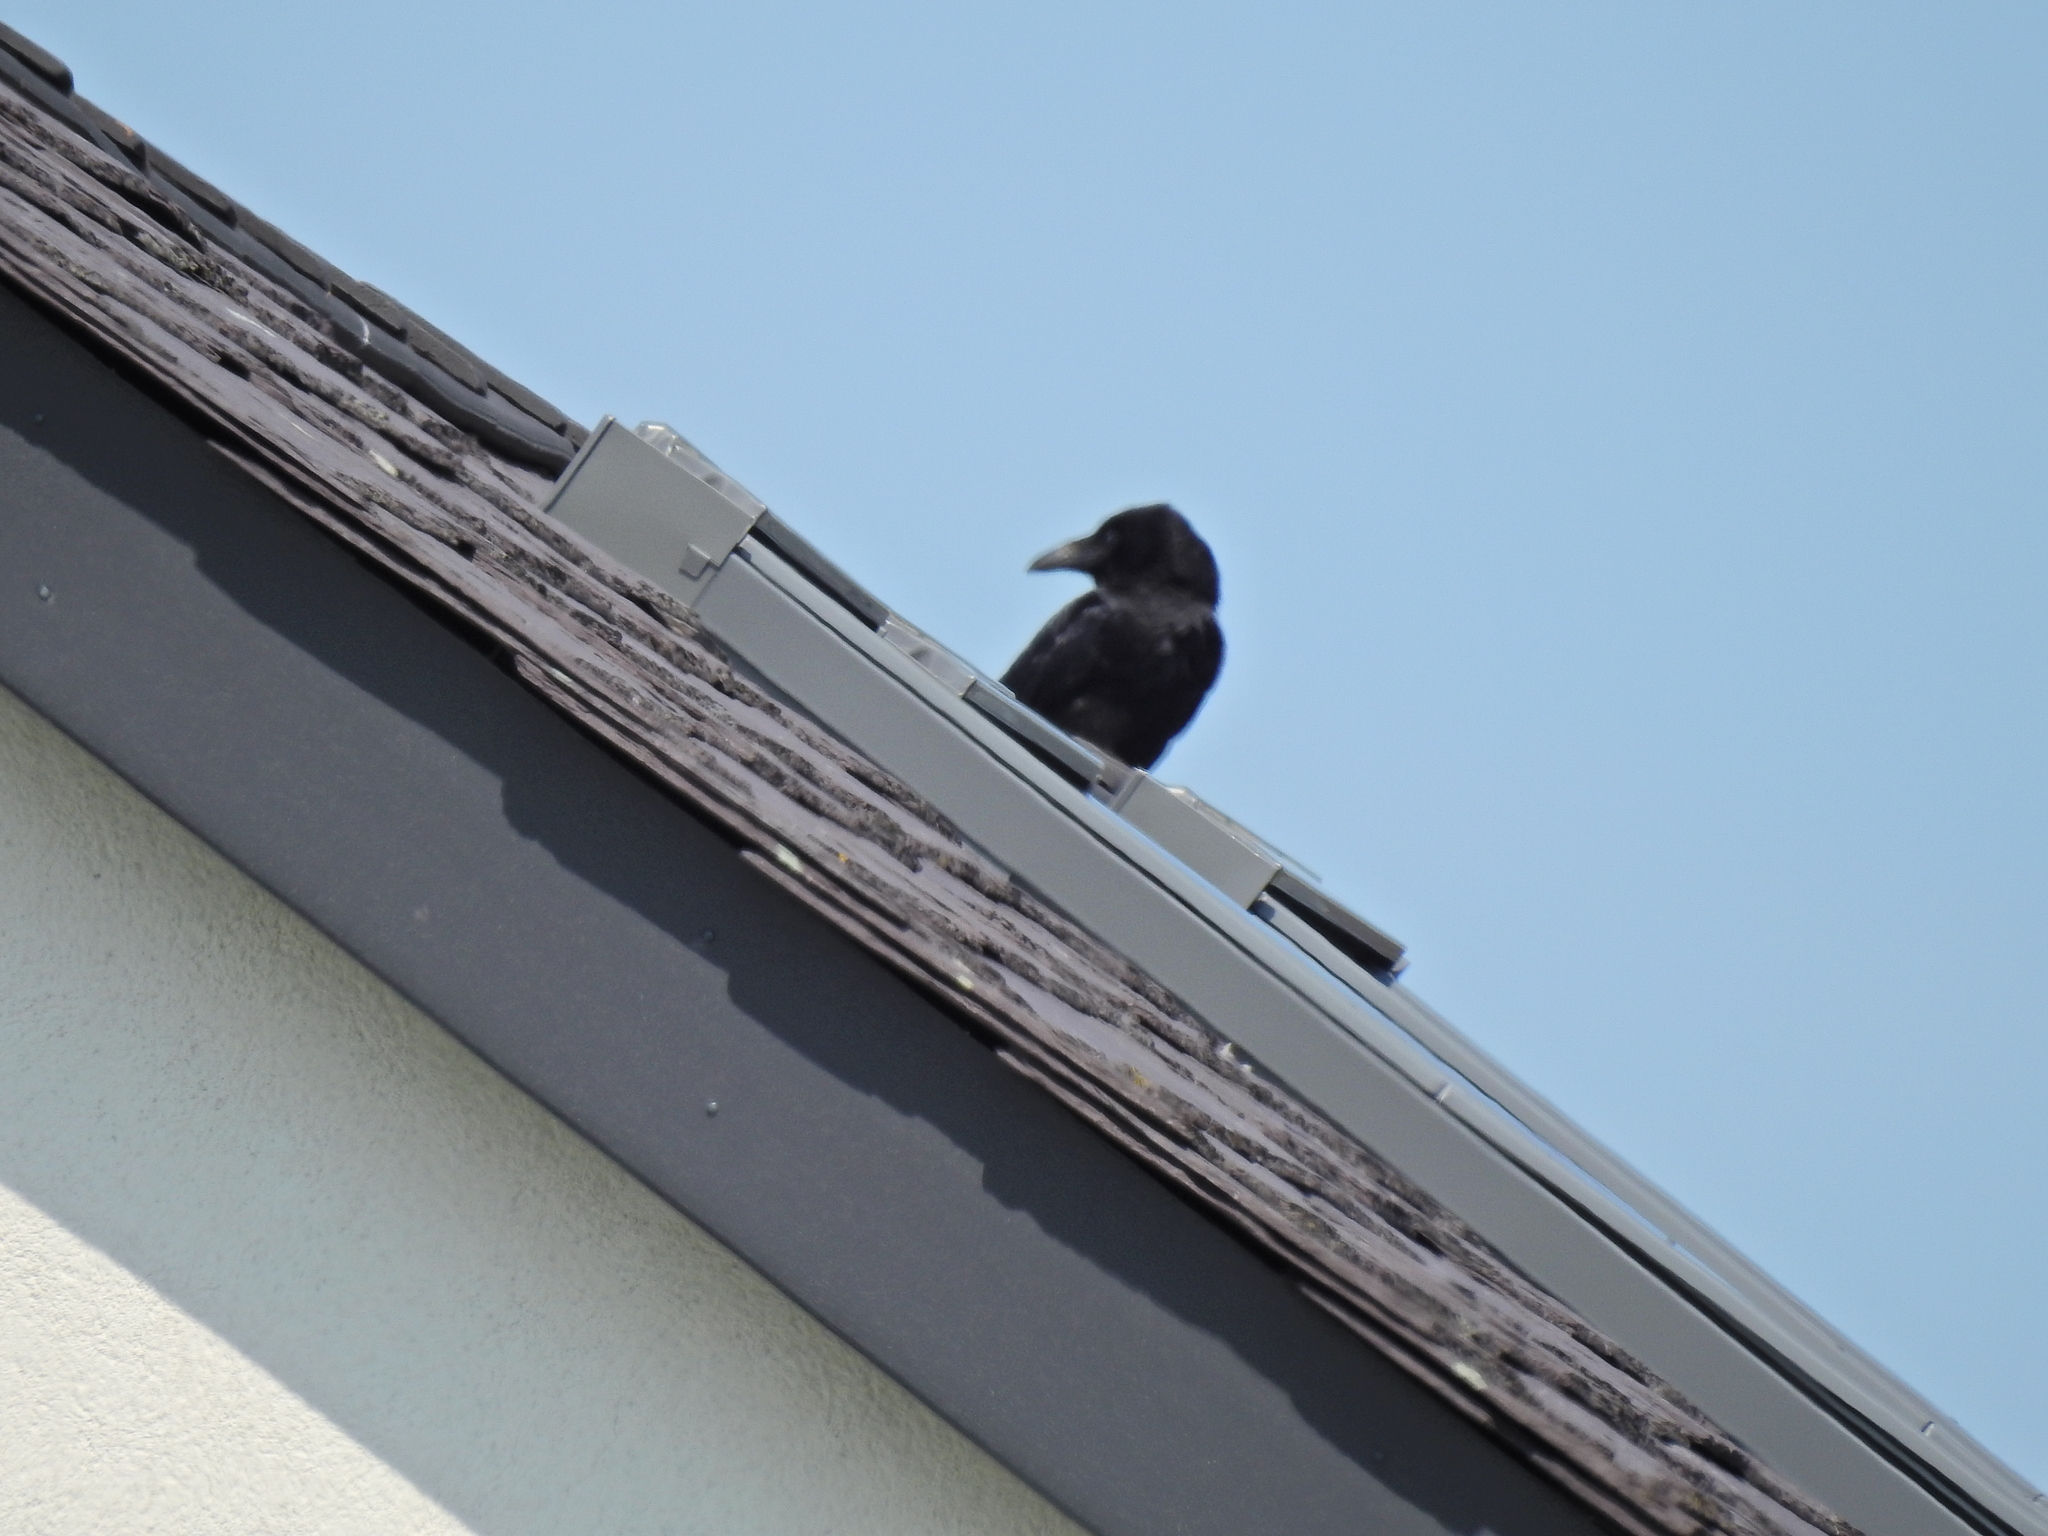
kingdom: Animalia
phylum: Chordata
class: Aves
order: Passeriformes
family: Corvidae
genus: Corvus
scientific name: Corvus corone
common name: Carrion crow
